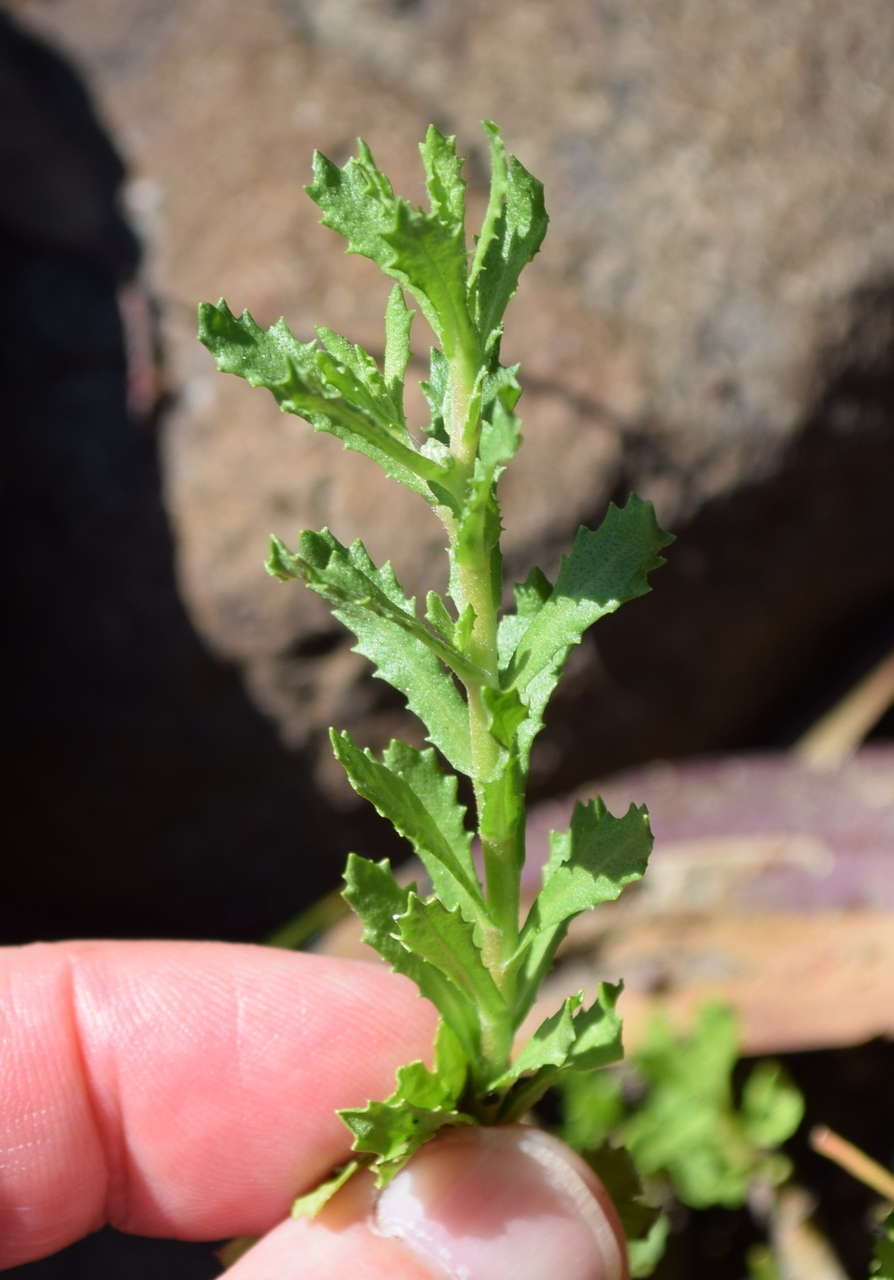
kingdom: Plantae
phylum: Tracheophyta
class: Magnoliopsida
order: Asterales
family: Asteraceae
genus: Centipeda
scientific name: Centipeda cunninghamii
